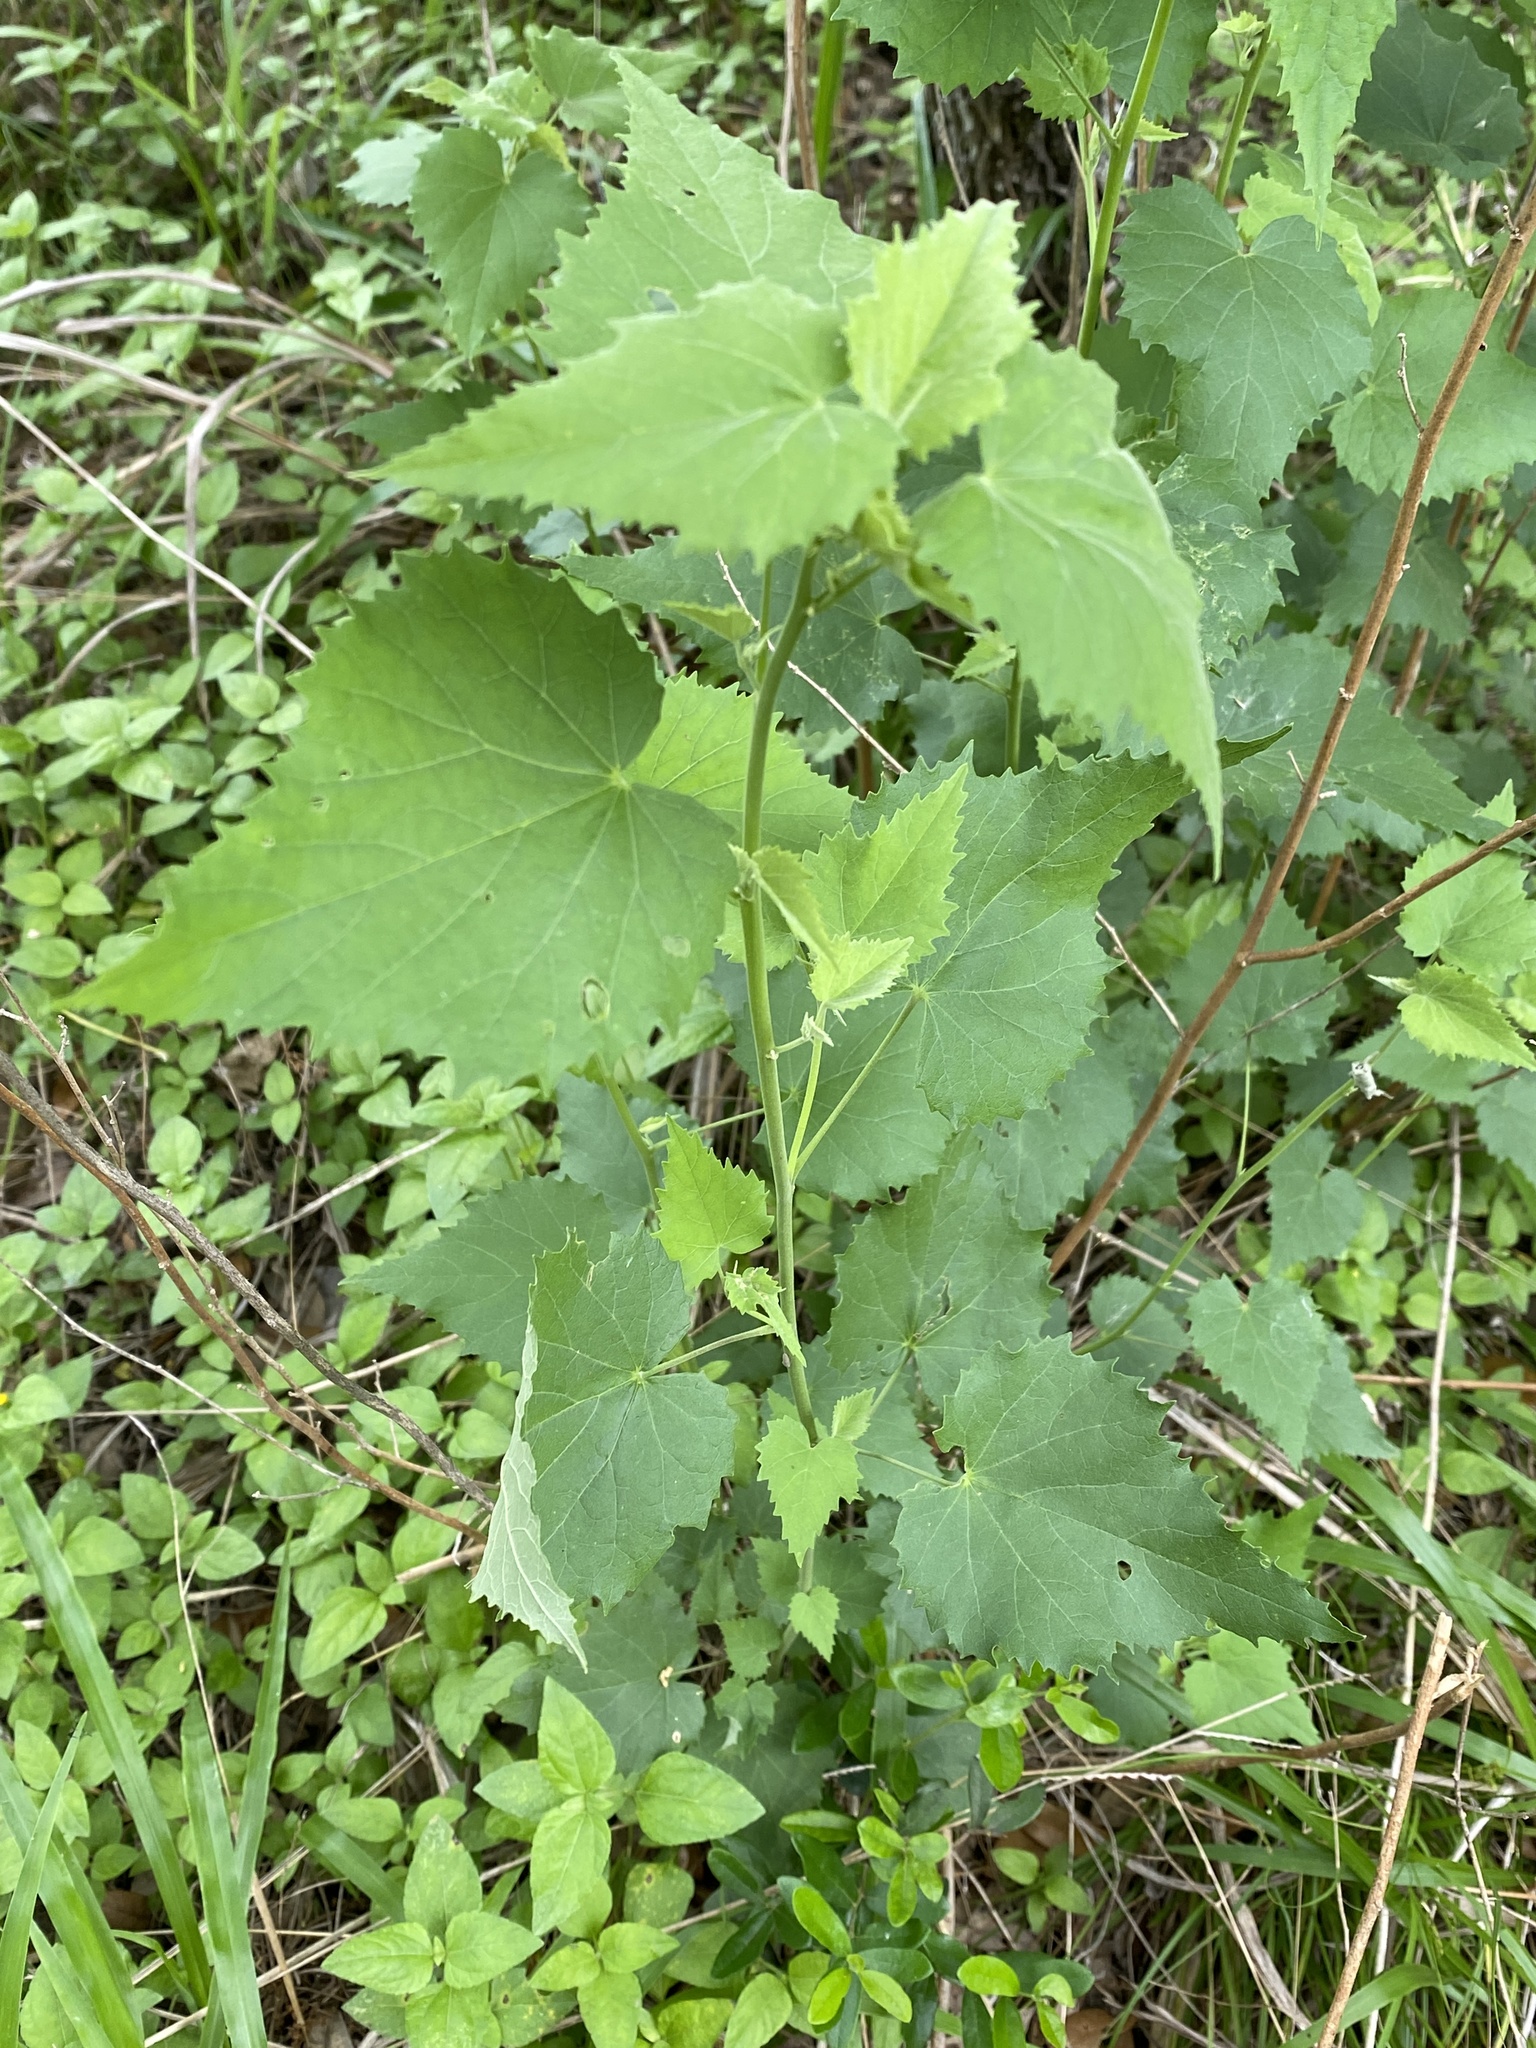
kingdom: Plantae
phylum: Tracheophyta
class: Magnoliopsida
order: Malvales
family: Malvaceae
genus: Allowissadula
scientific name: Allowissadula holosericea
